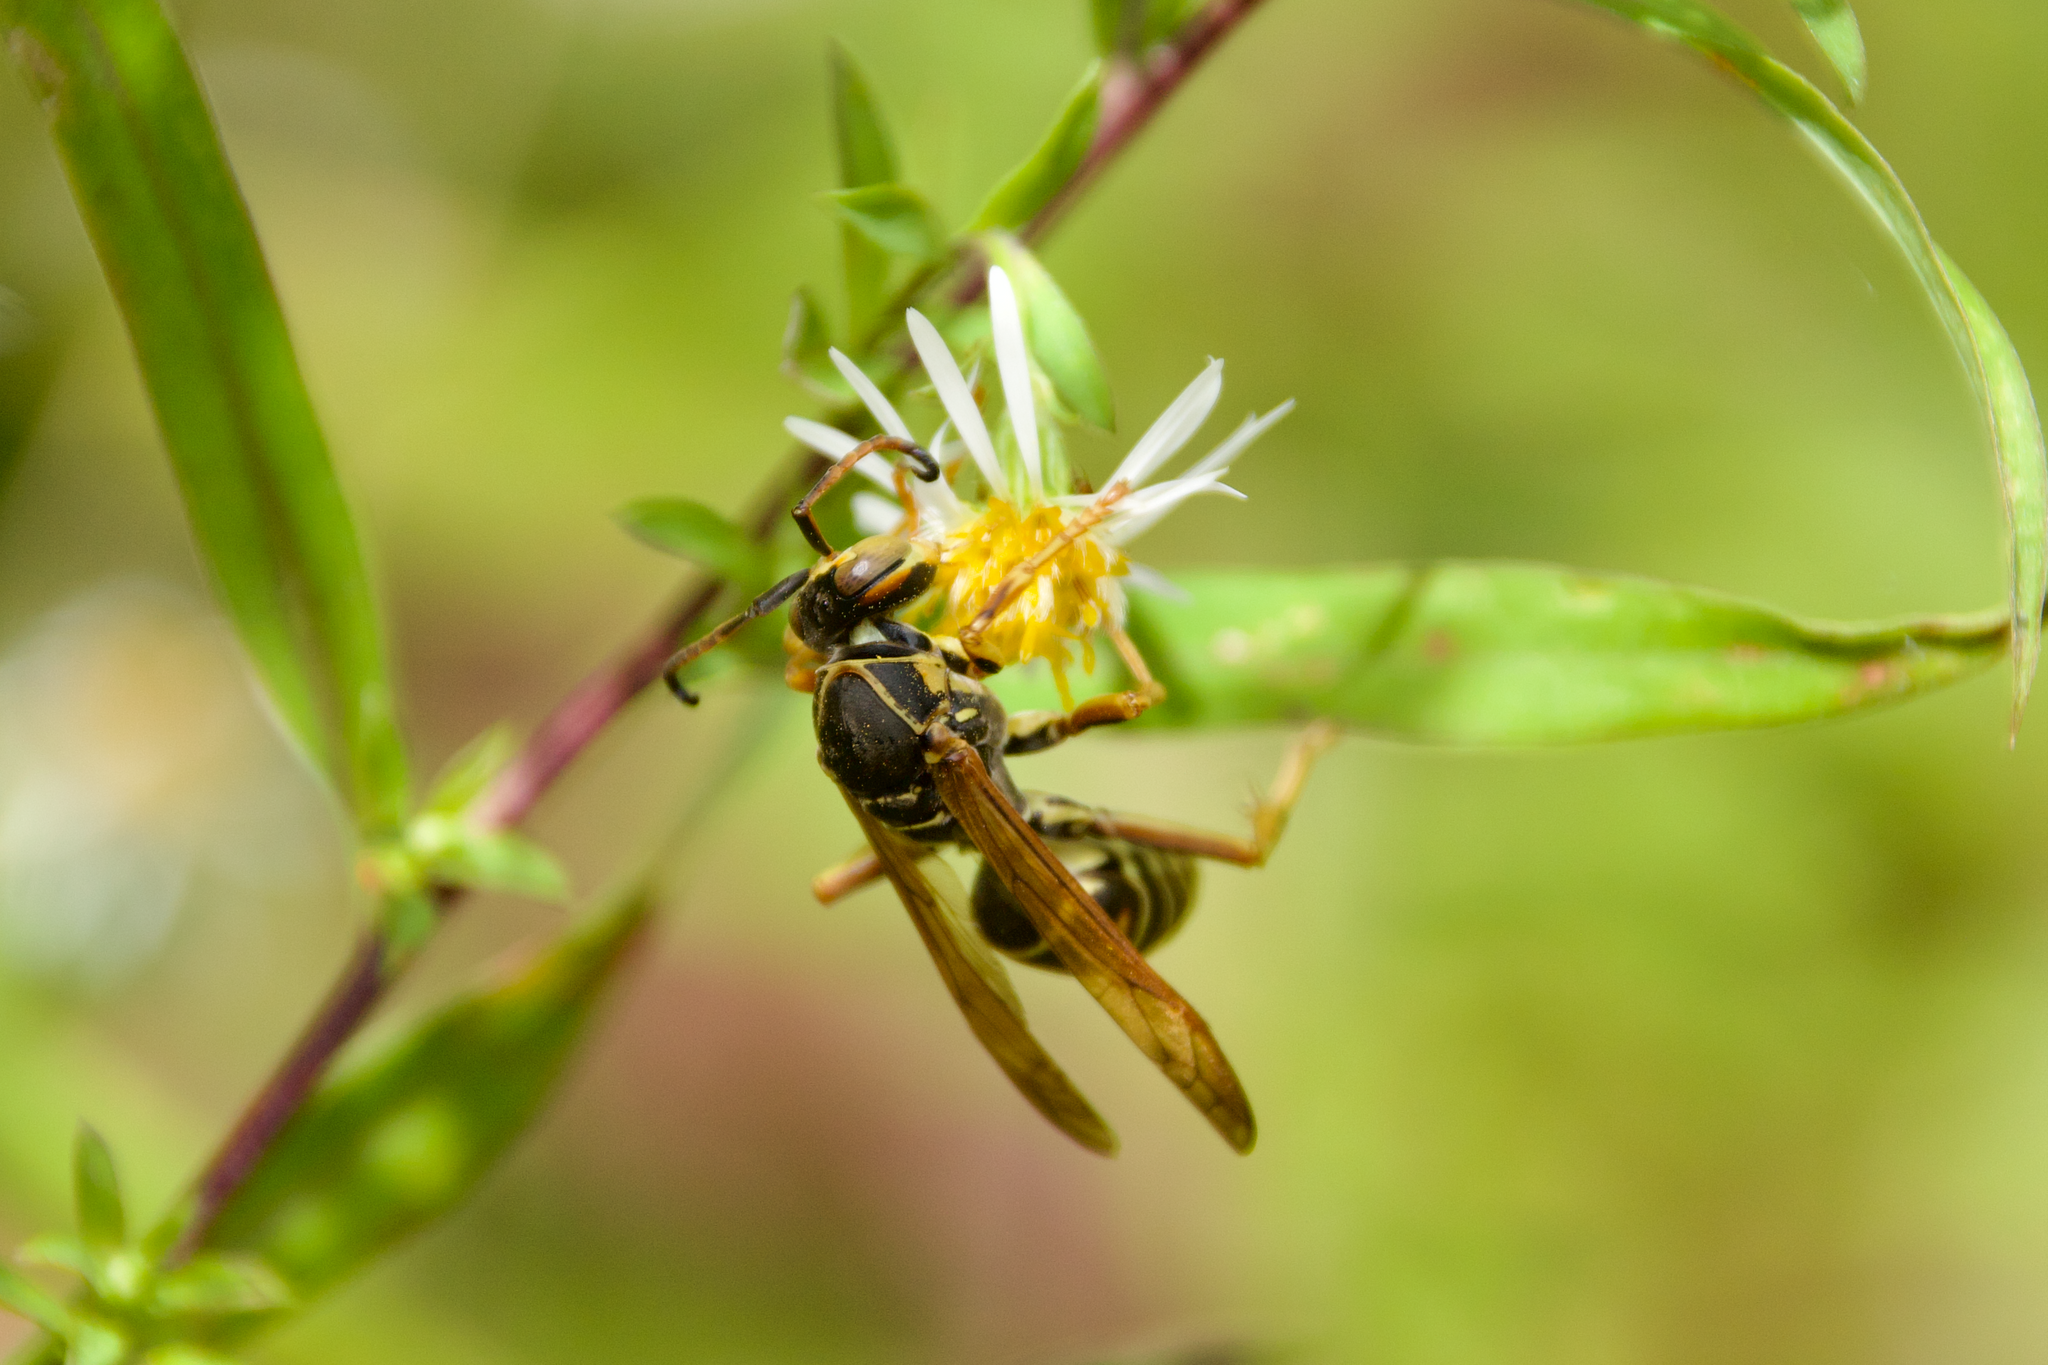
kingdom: Animalia
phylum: Arthropoda
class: Insecta
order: Hymenoptera
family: Eumenidae
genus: Polistes
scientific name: Polistes fuscatus
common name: Dark paper wasp
